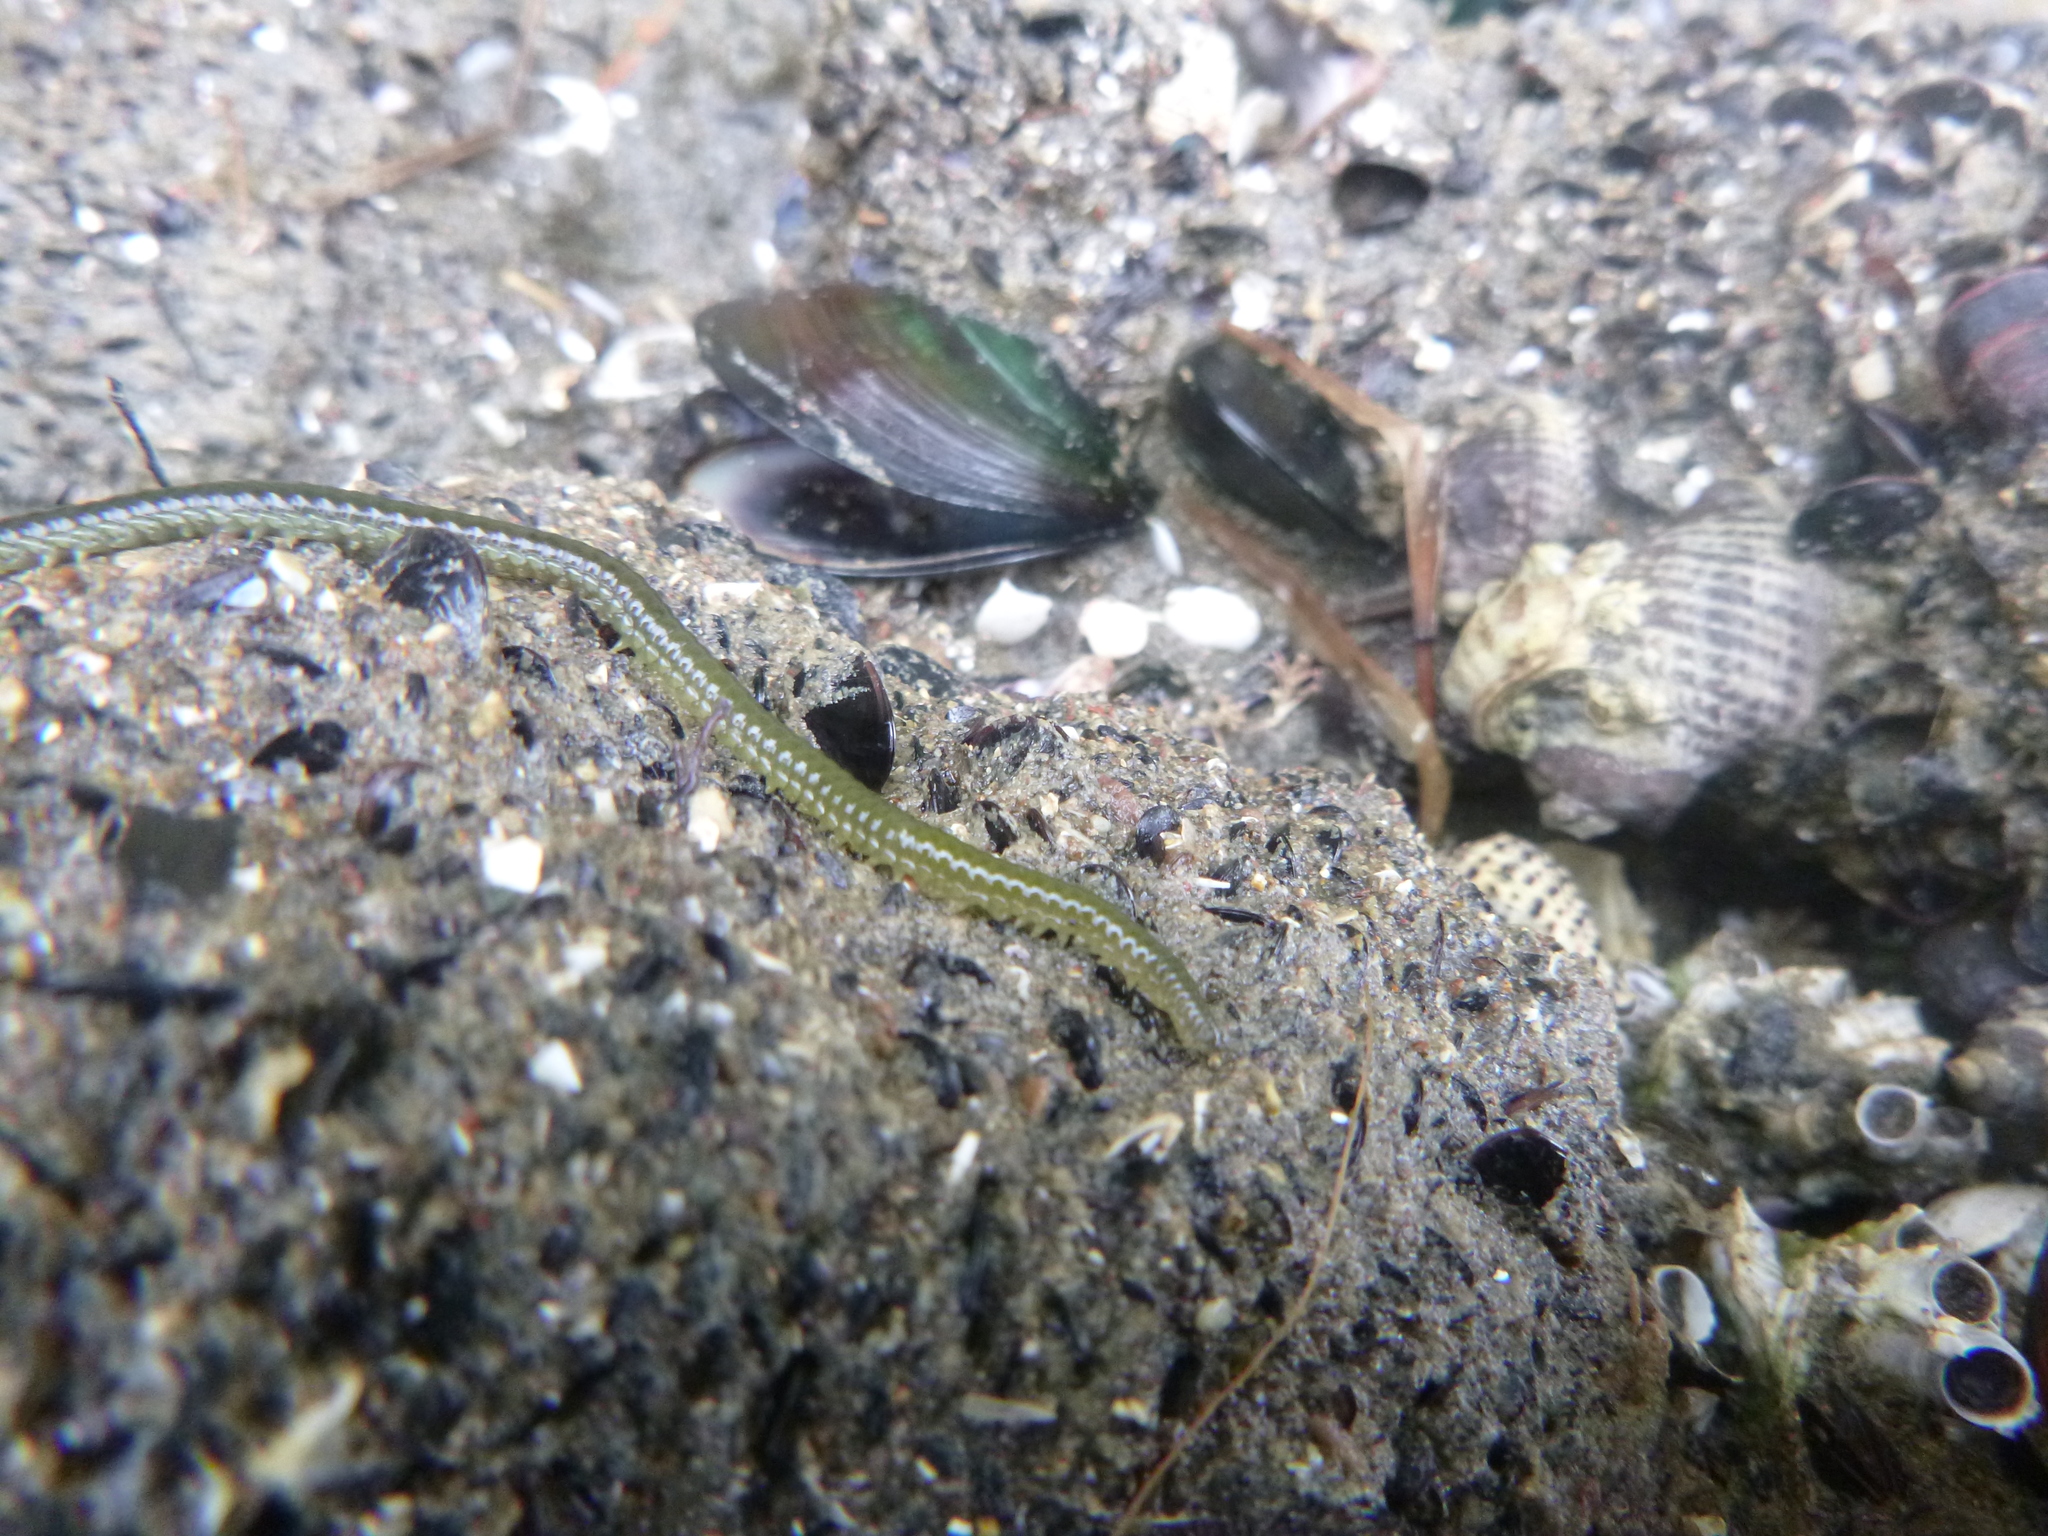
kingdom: Animalia
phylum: Annelida
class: Polychaeta
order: Phyllodocida
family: Phyllodocidae
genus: Eulalia
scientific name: Eulalia microphylla
